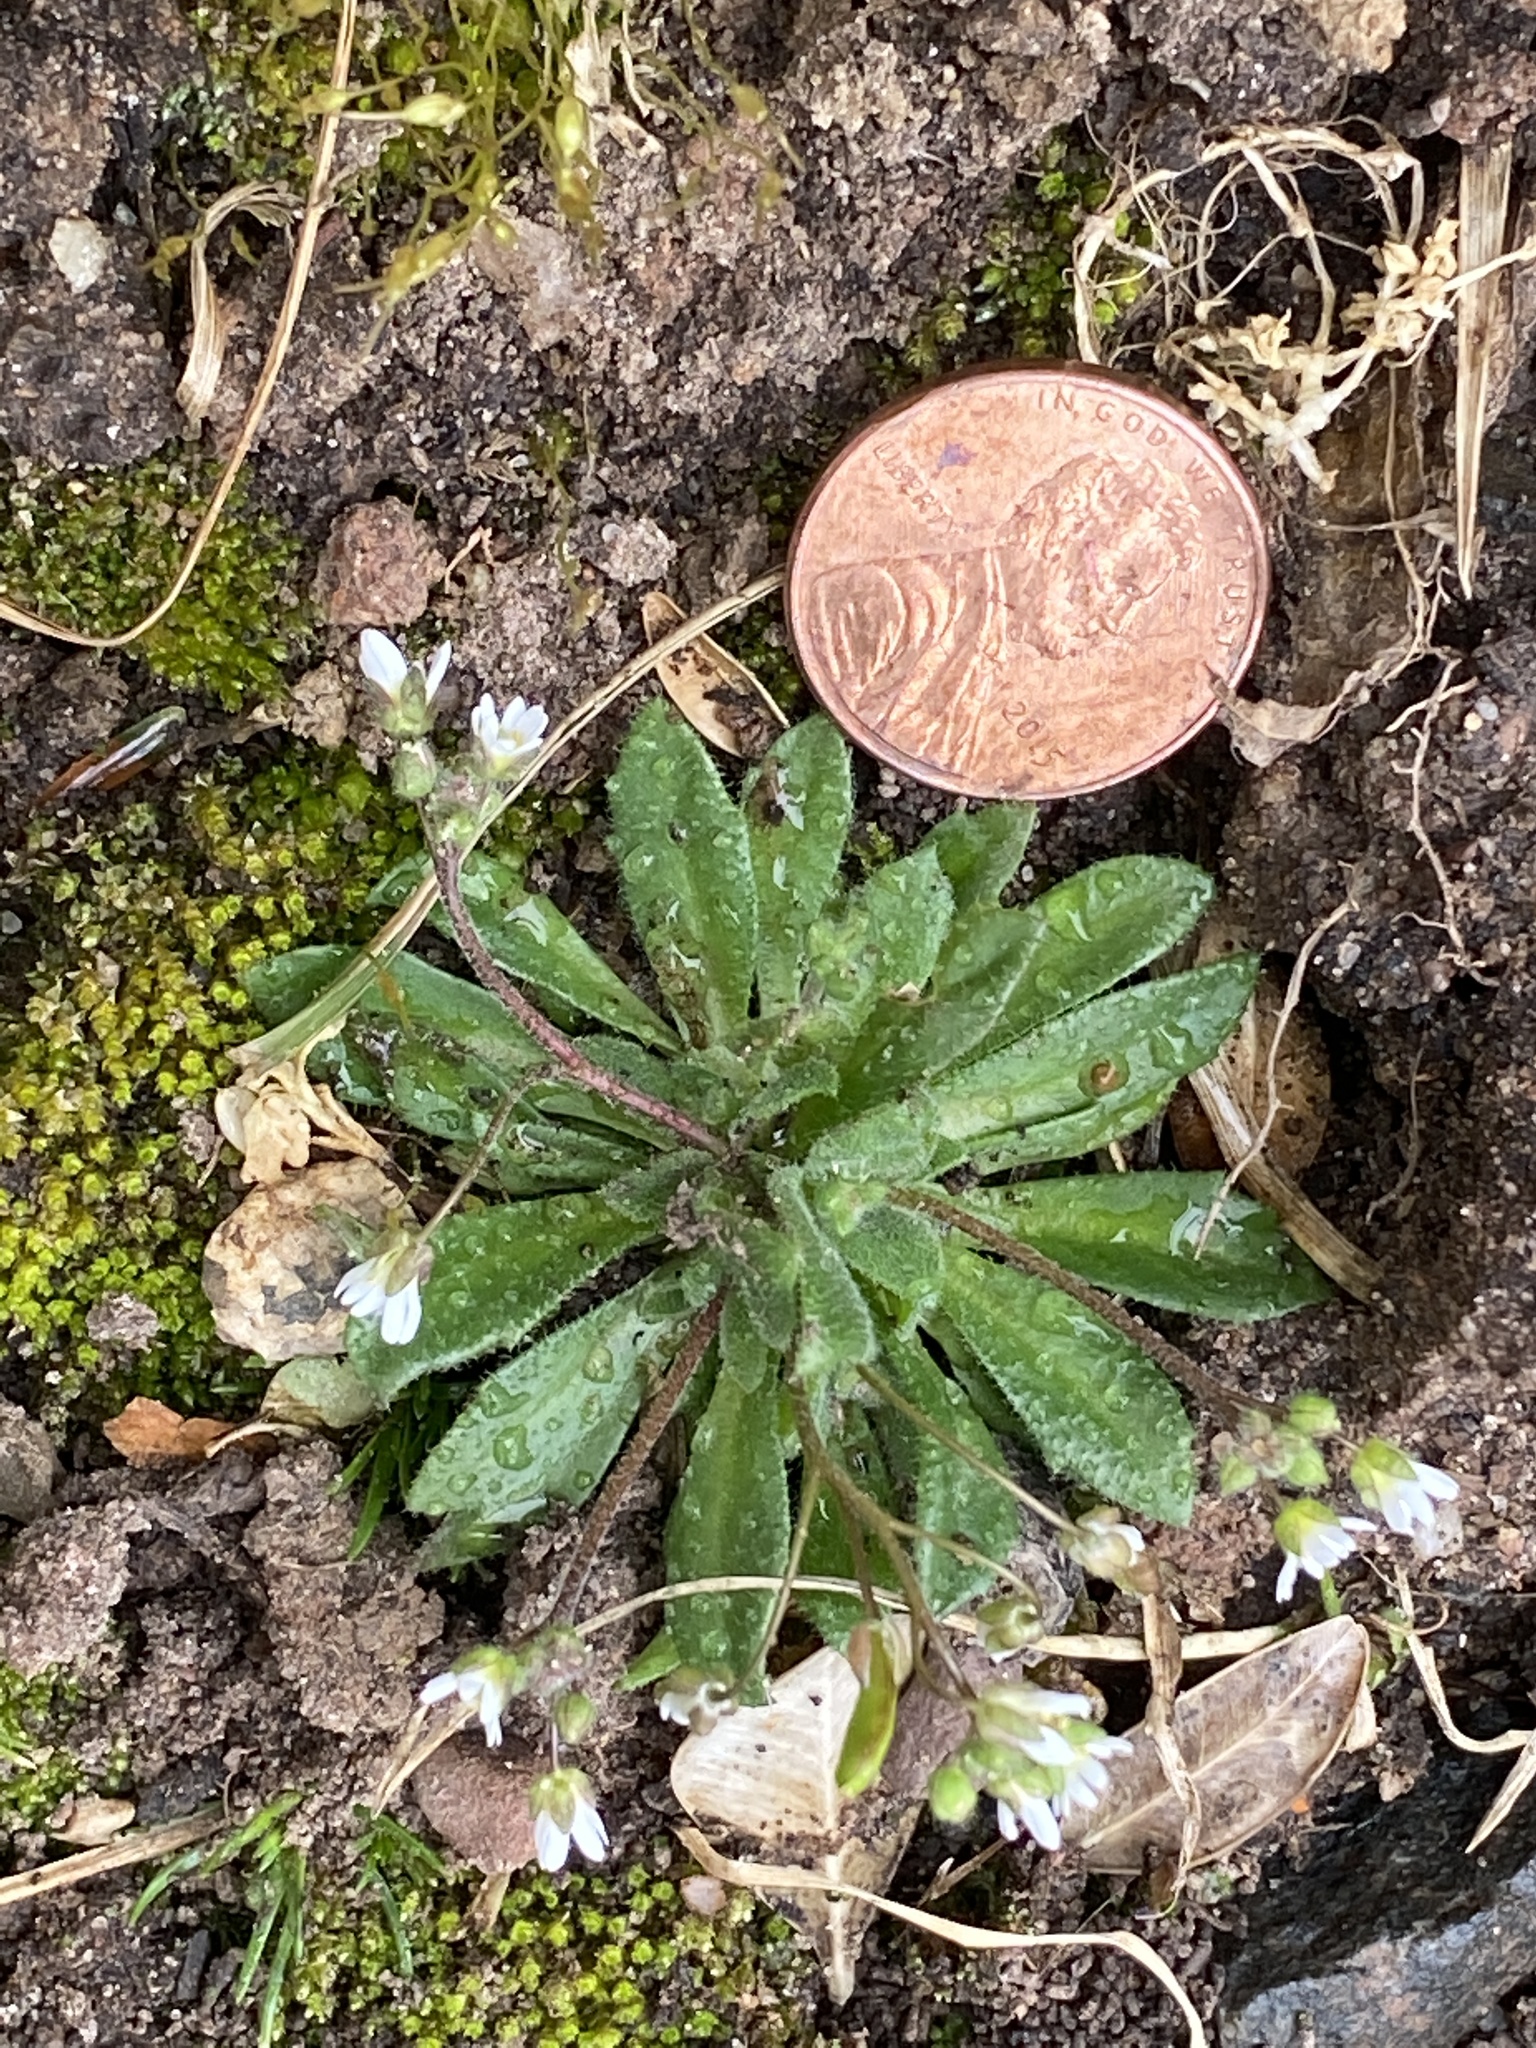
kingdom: Plantae
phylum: Tracheophyta
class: Magnoliopsida
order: Brassicales
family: Brassicaceae
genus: Draba
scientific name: Draba verna
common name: Spring draba
